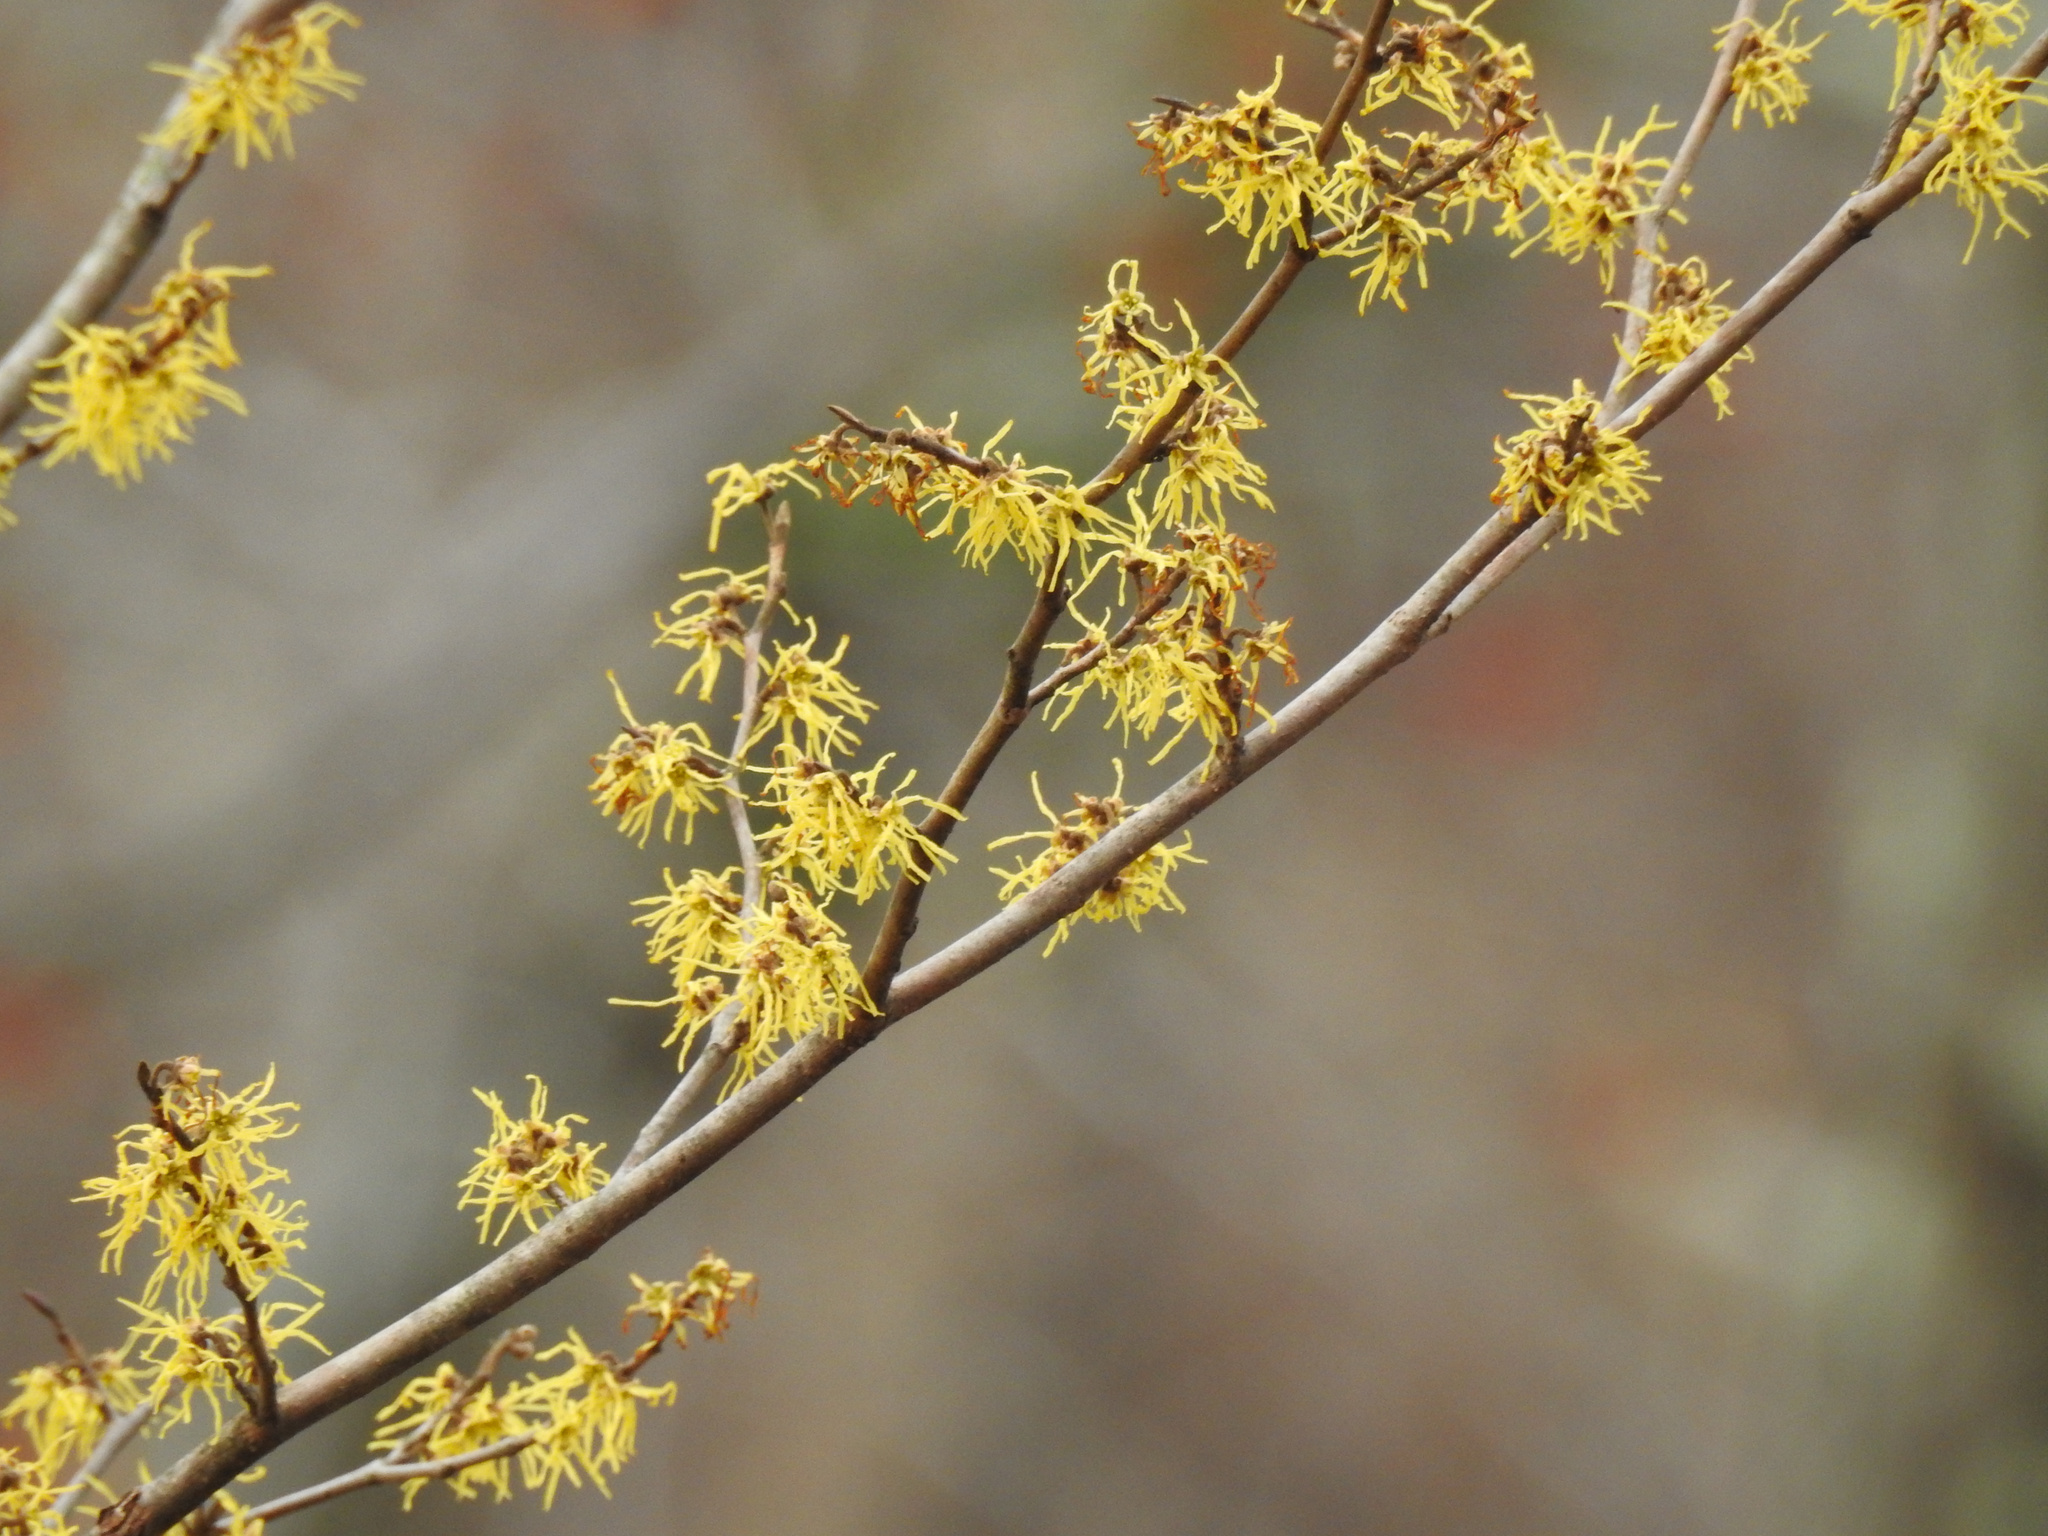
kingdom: Plantae
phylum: Tracheophyta
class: Magnoliopsida
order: Saxifragales
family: Hamamelidaceae
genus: Hamamelis
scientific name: Hamamelis virginiana
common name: Witch-hazel
